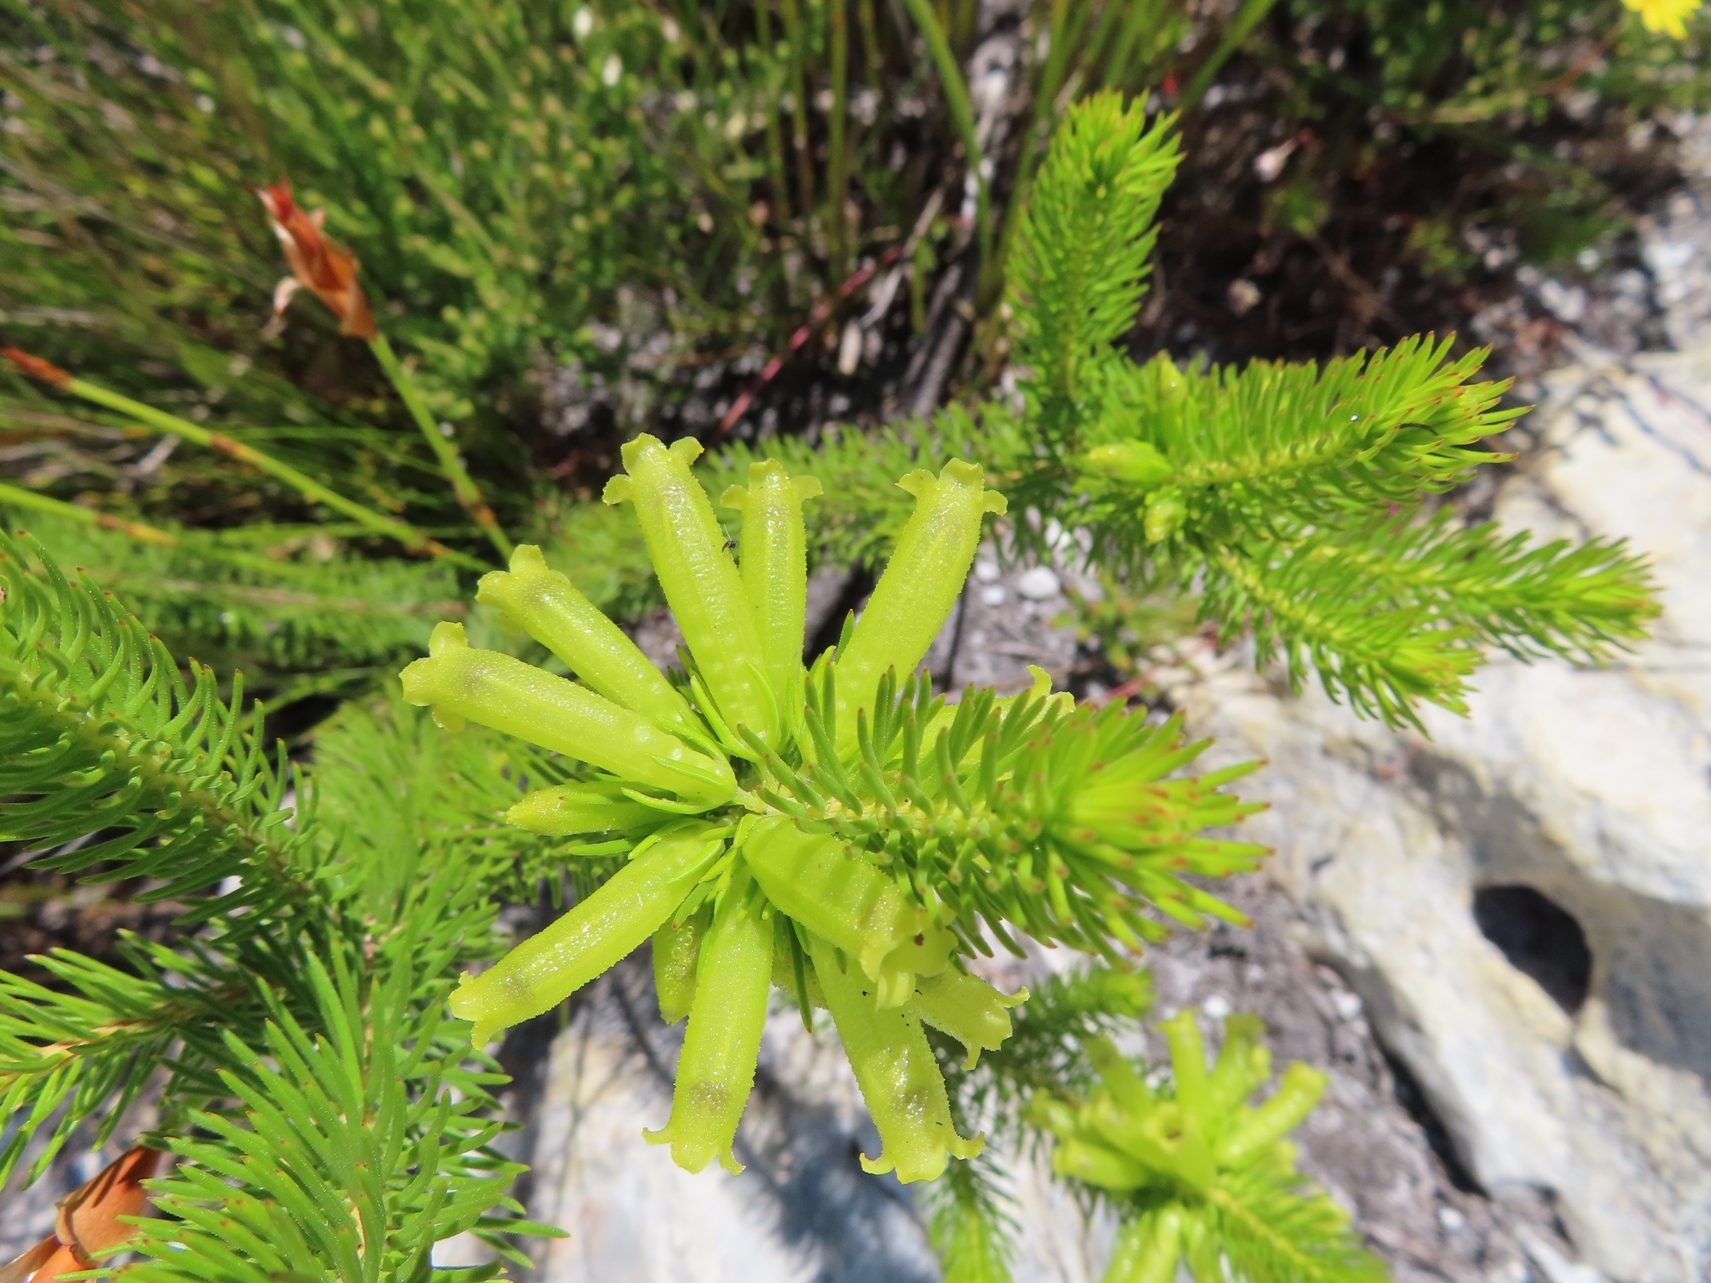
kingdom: Plantae
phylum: Tracheophyta
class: Magnoliopsida
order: Ericales
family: Ericaceae
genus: Erica
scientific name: Erica viscaria
